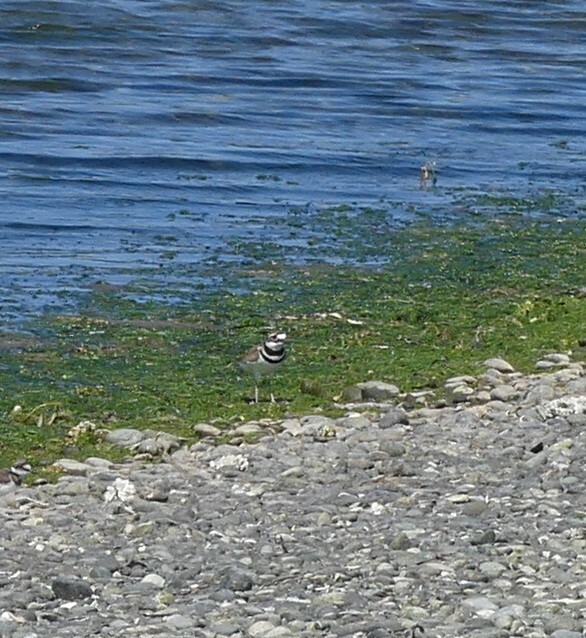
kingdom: Animalia
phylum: Chordata
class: Aves
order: Charadriiformes
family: Charadriidae
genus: Charadrius
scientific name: Charadrius vociferus
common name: Killdeer
